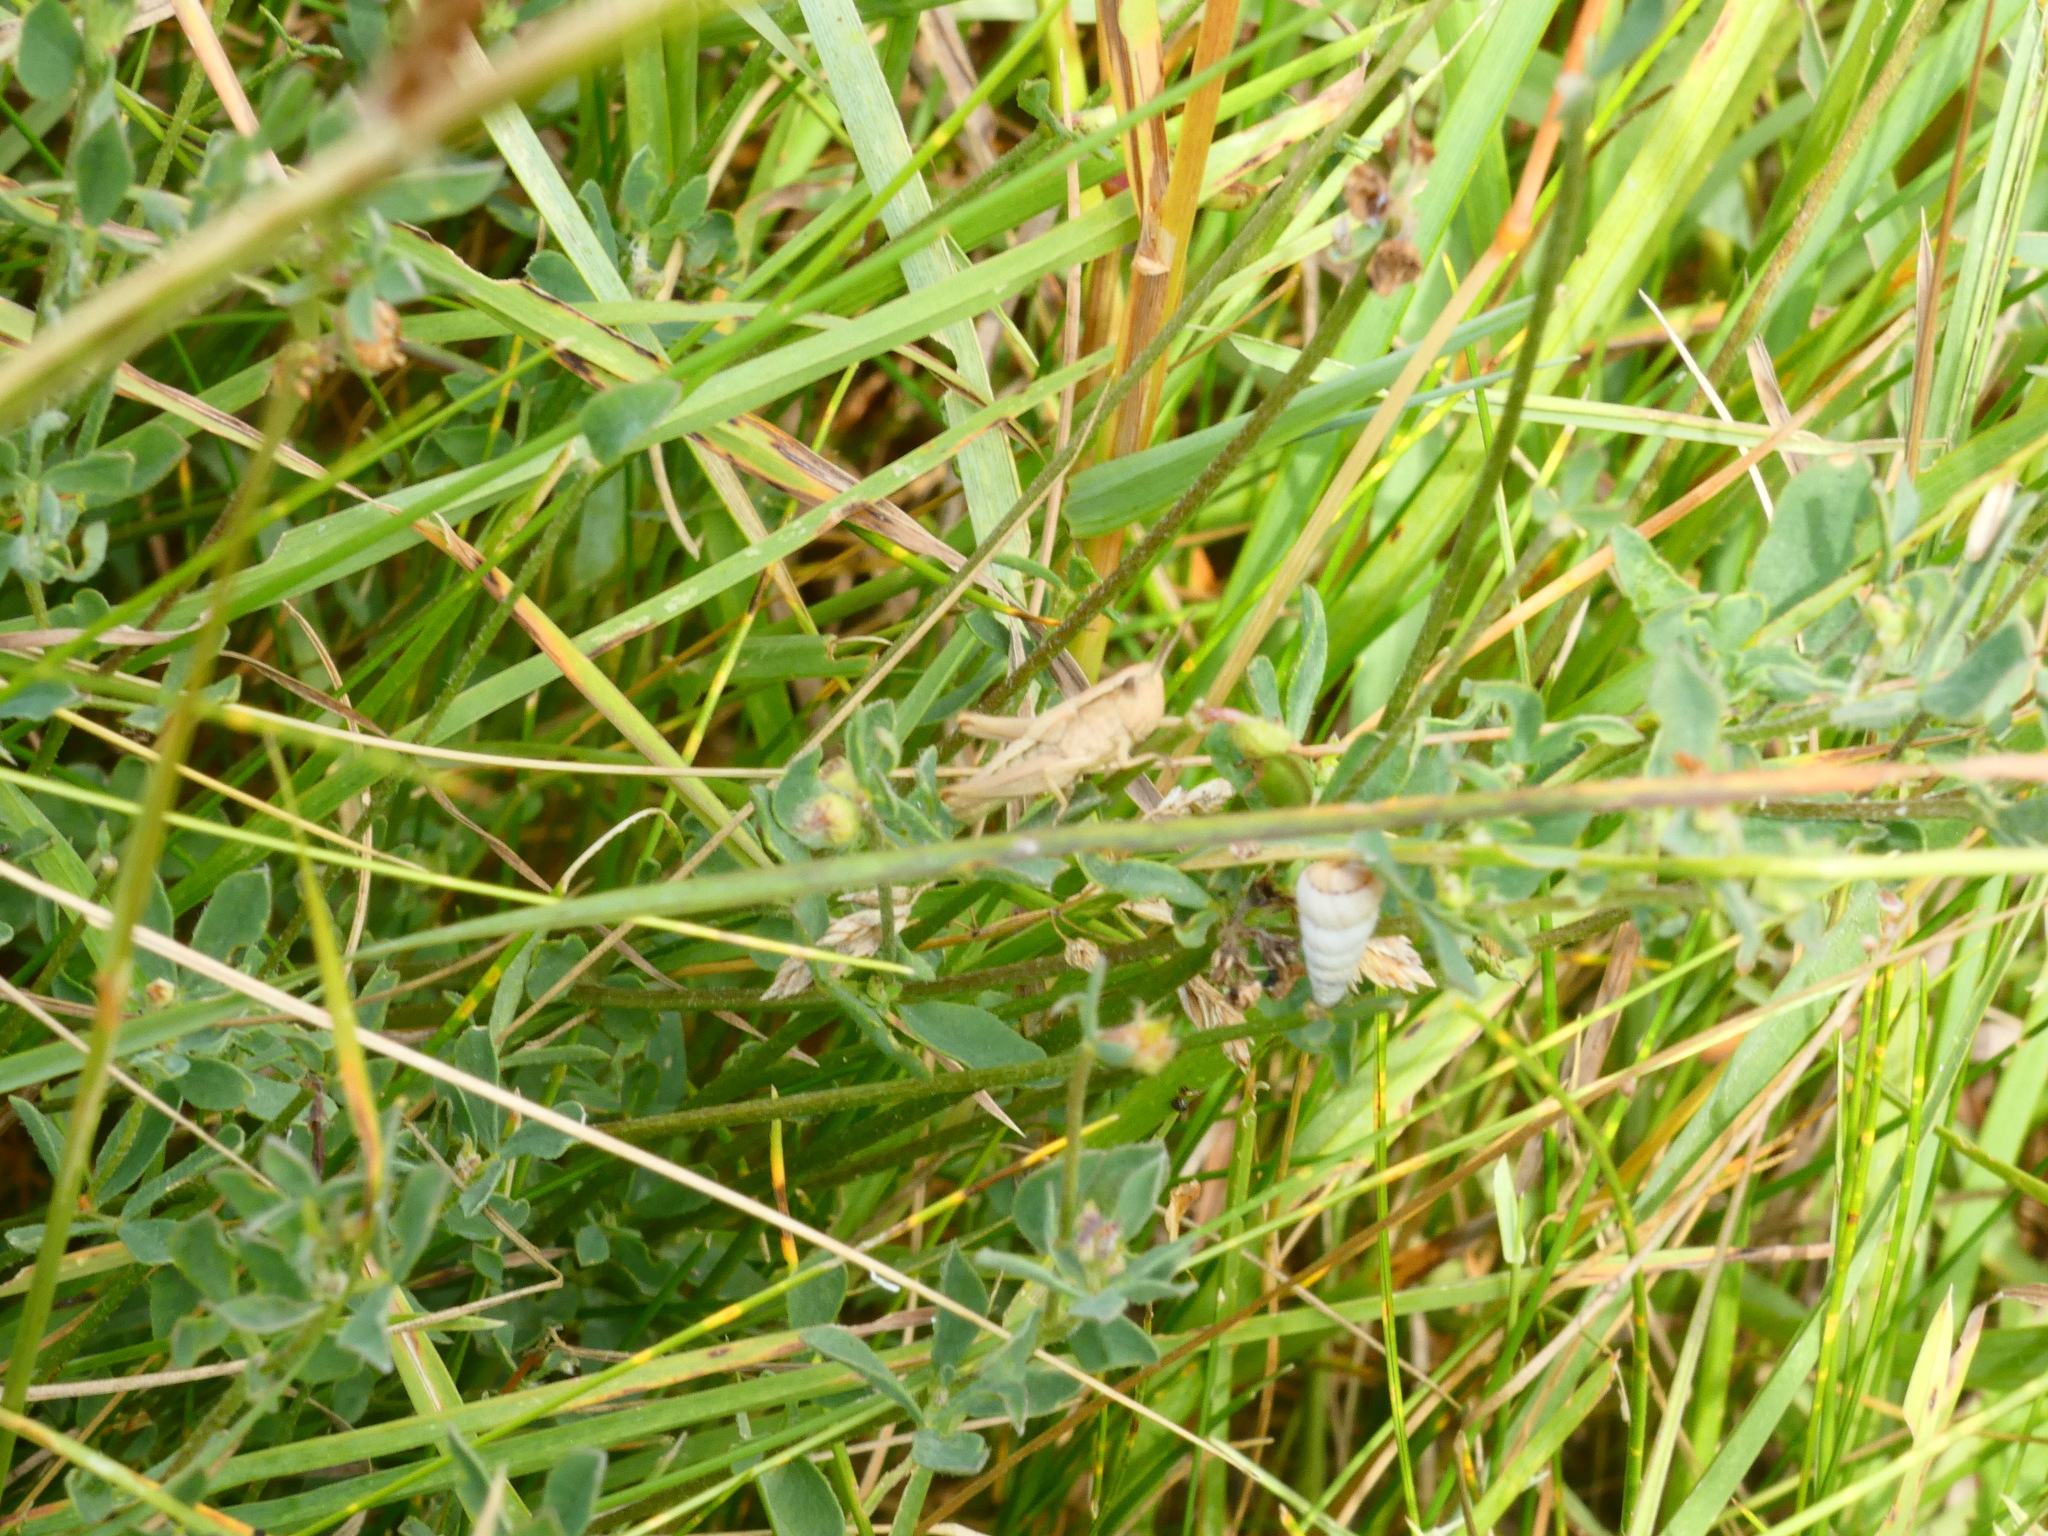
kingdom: Animalia
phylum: Arthropoda
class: Insecta
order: Orthoptera
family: Acrididae
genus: Chorthippus
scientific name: Chorthippus albomarginatus
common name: Lesser marsh grasshopper
